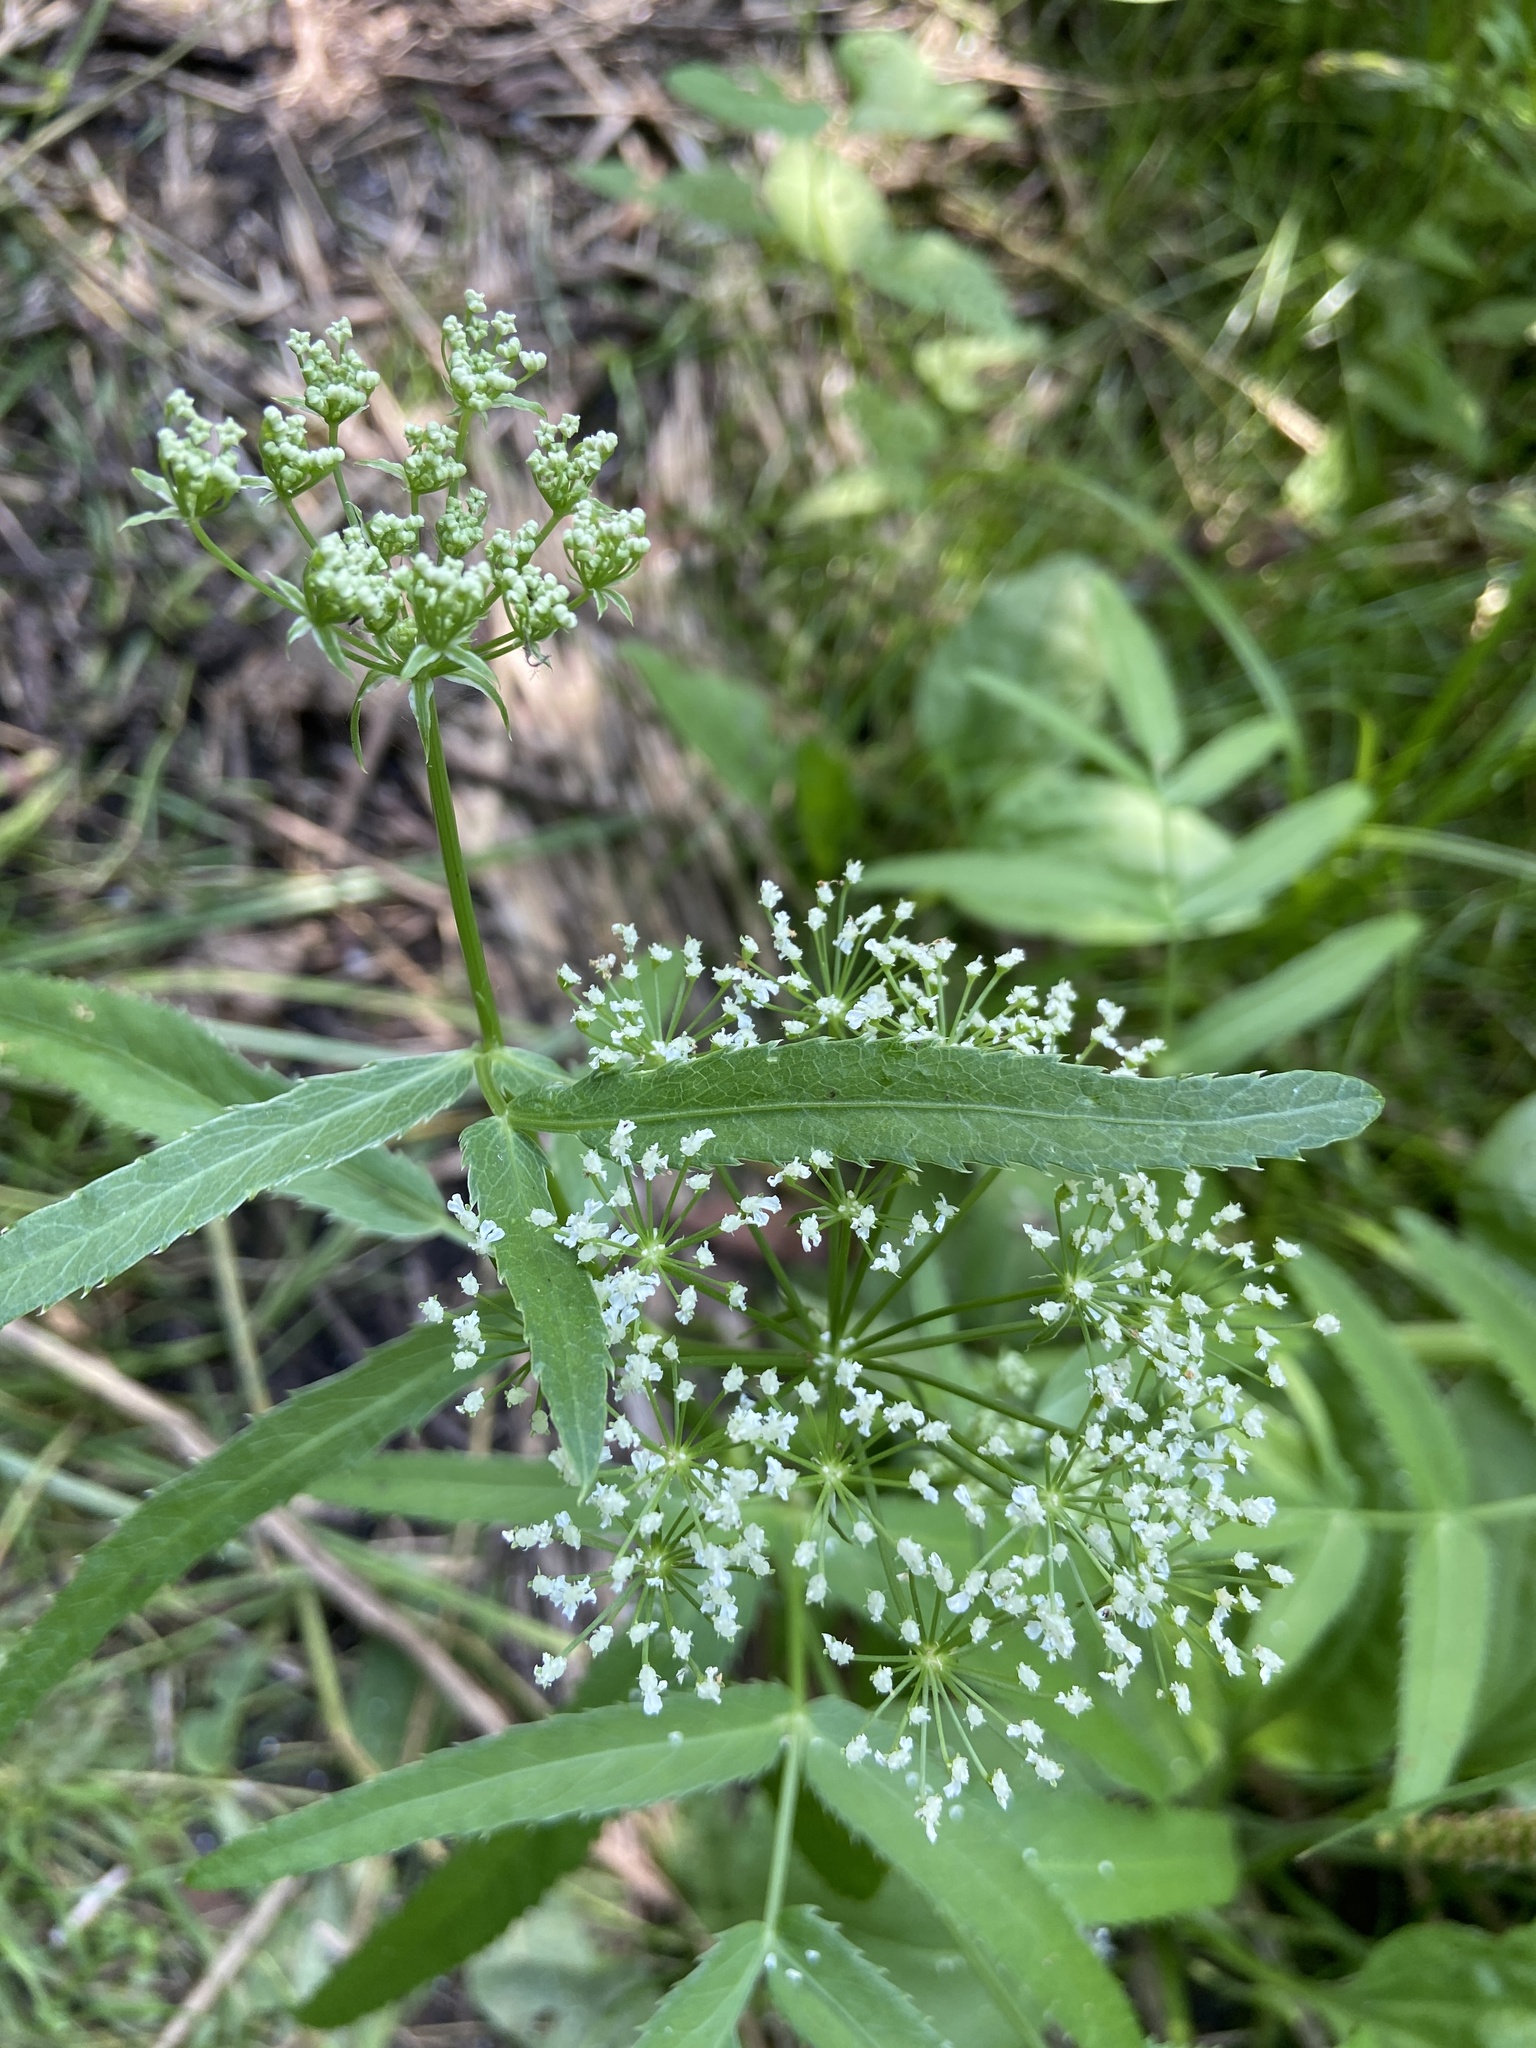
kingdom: Plantae
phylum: Tracheophyta
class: Magnoliopsida
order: Apiales
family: Apiaceae
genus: Sium
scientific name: Sium latifolium
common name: Greater water-parsnip
